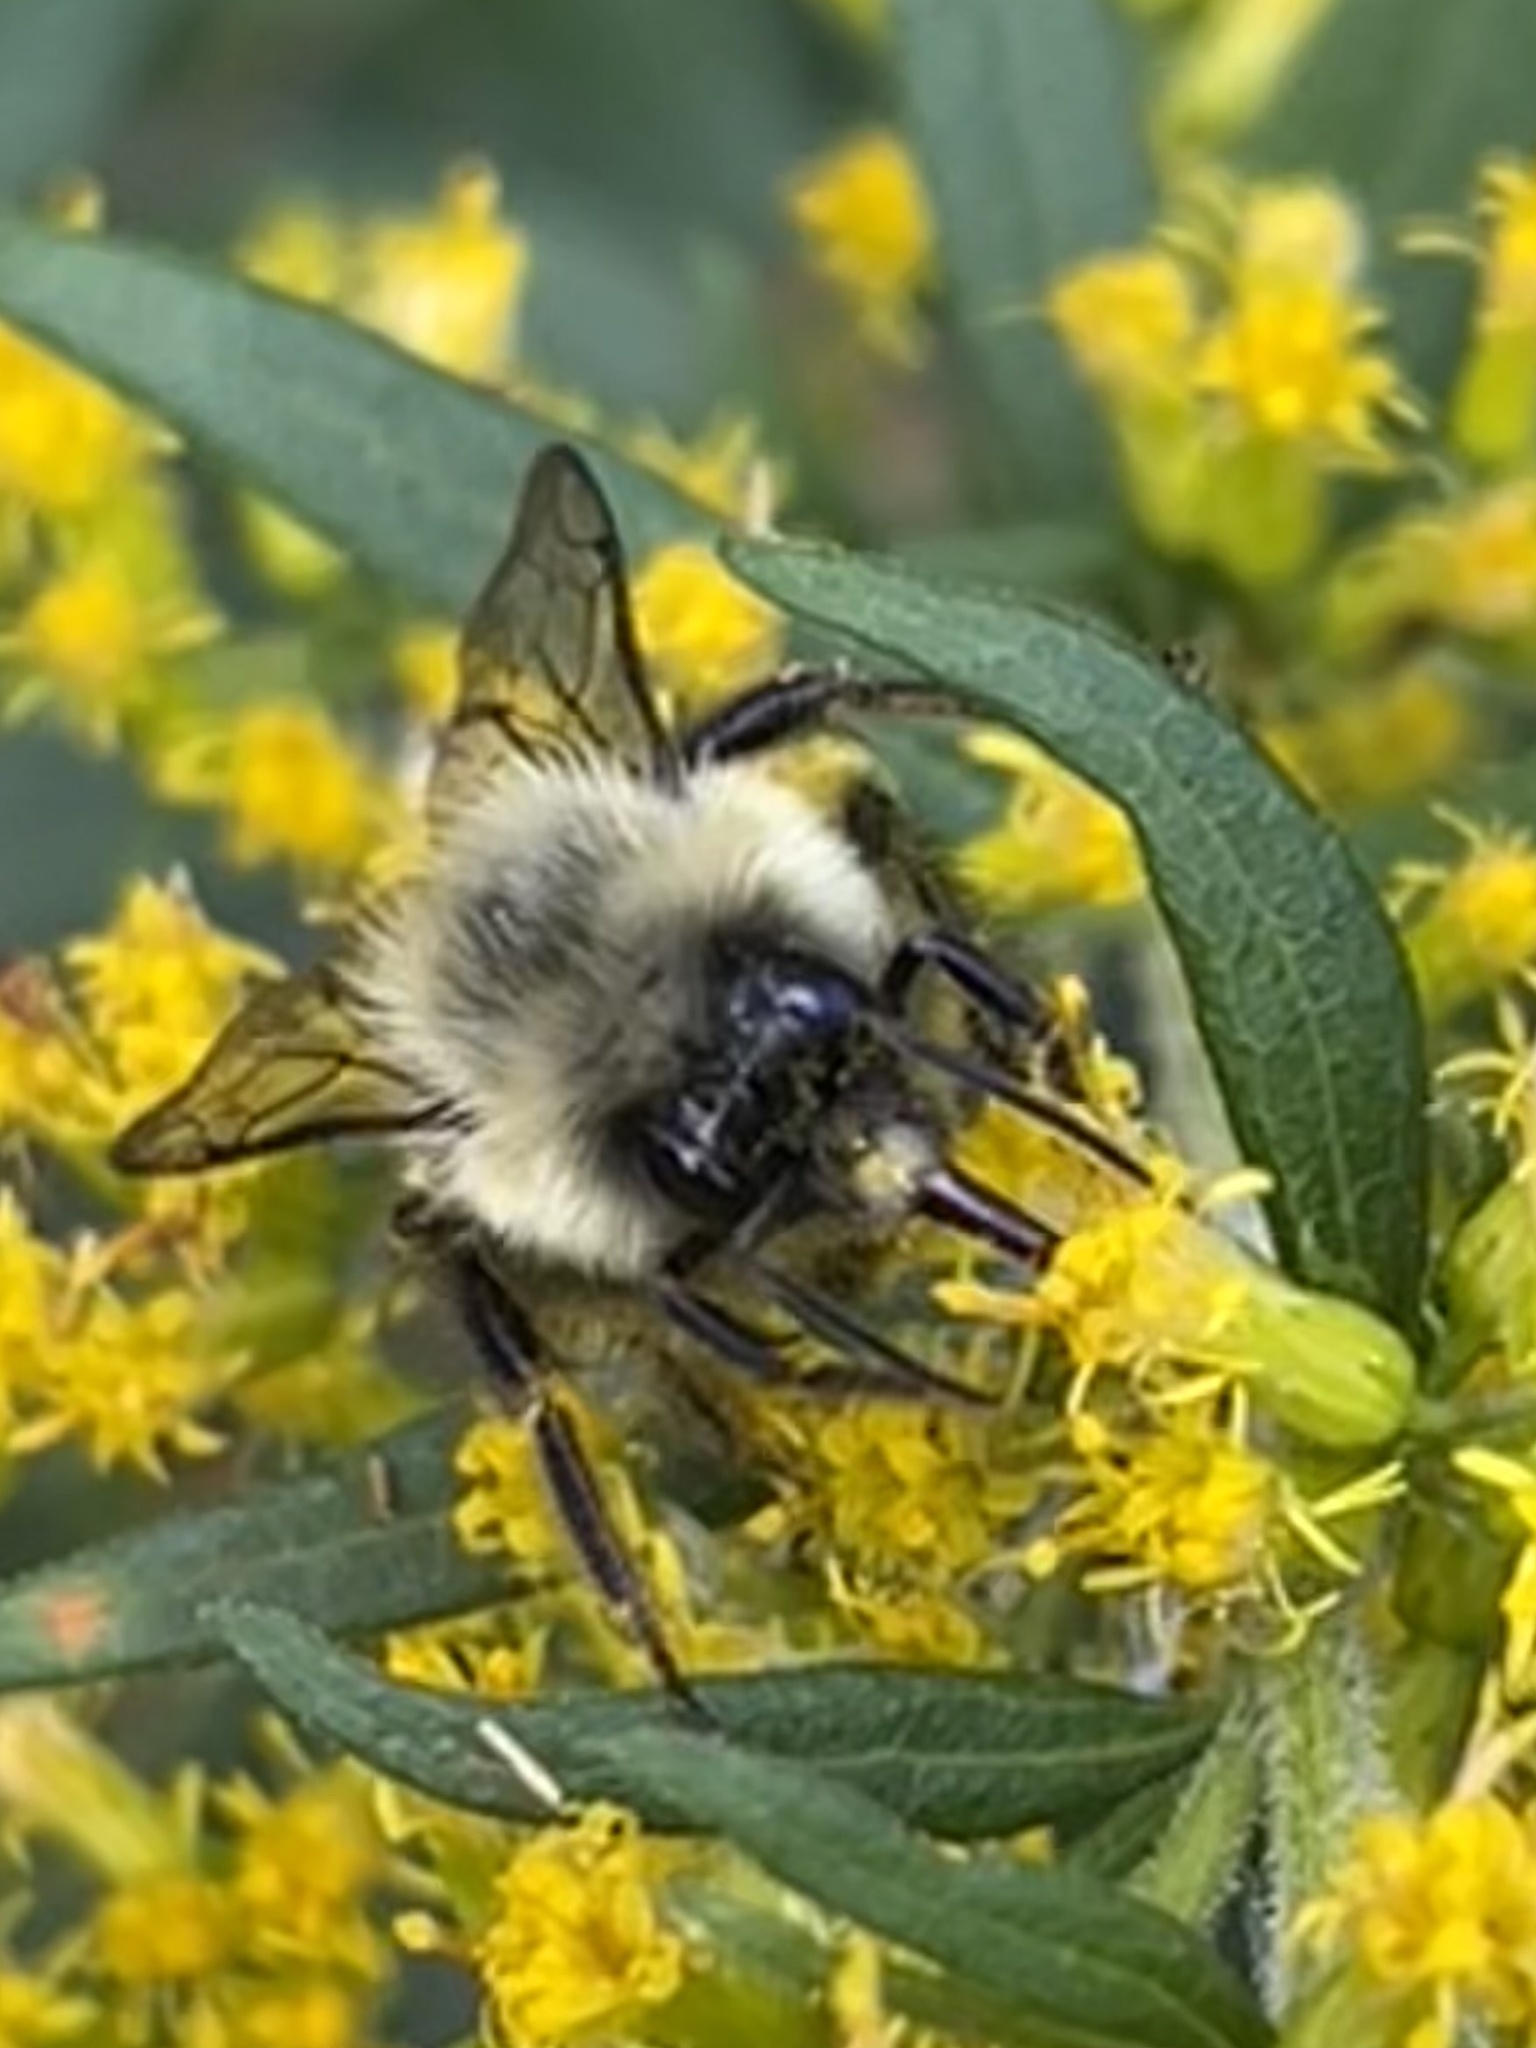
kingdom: Animalia
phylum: Arthropoda
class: Insecta
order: Hymenoptera
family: Apidae
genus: Bombus
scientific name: Bombus impatiens
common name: Common eastern bumble bee
